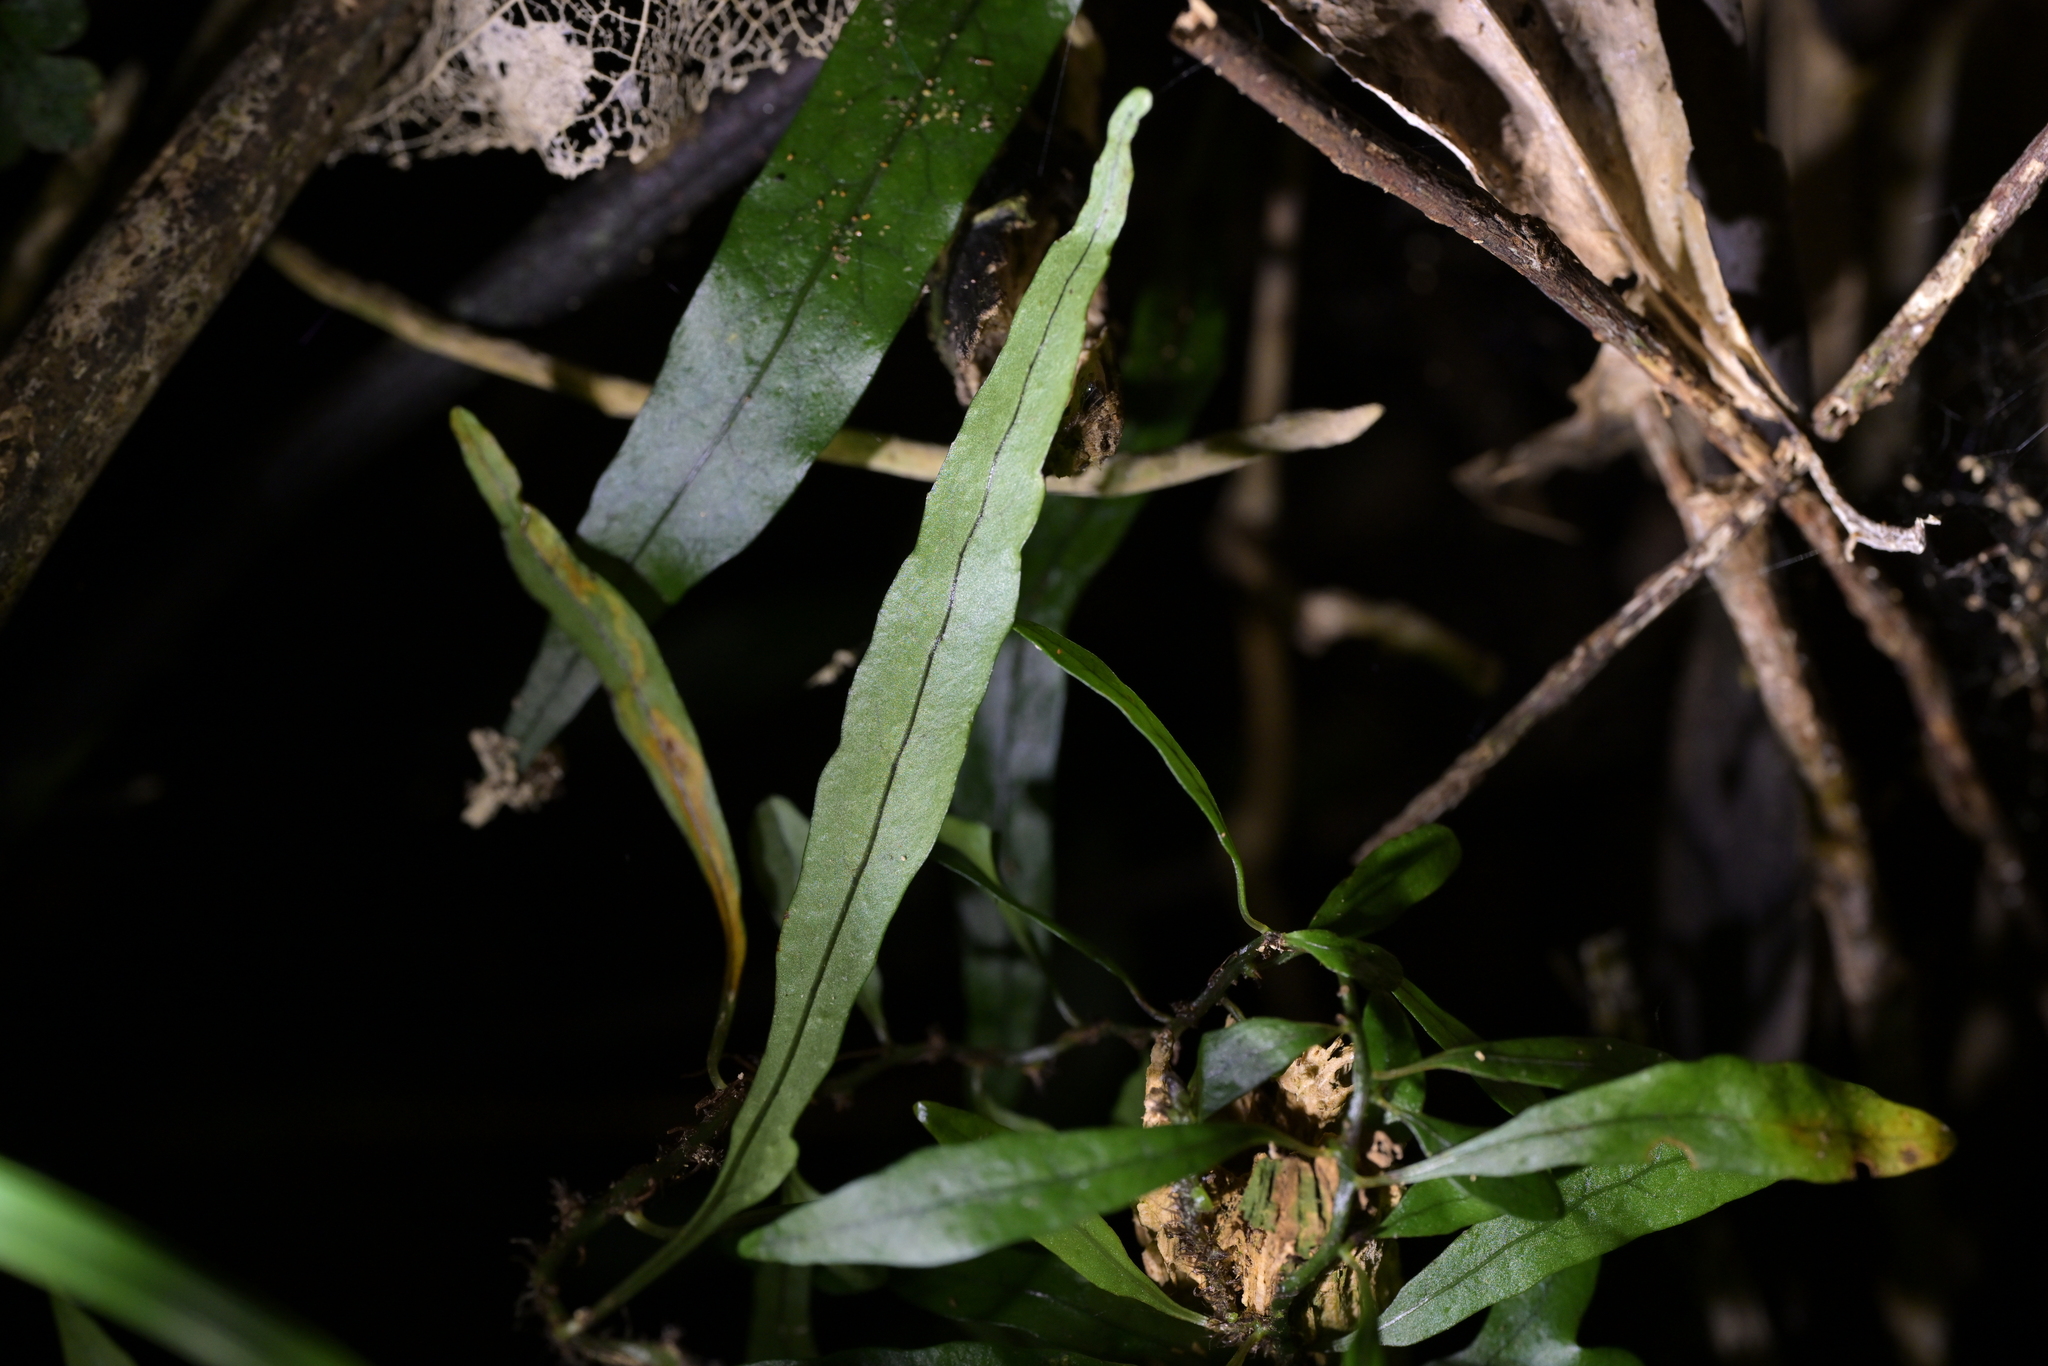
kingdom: Plantae
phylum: Tracheophyta
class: Polypodiopsida
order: Polypodiales
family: Polypodiaceae
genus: Lecanopteris
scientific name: Lecanopteris scandens
